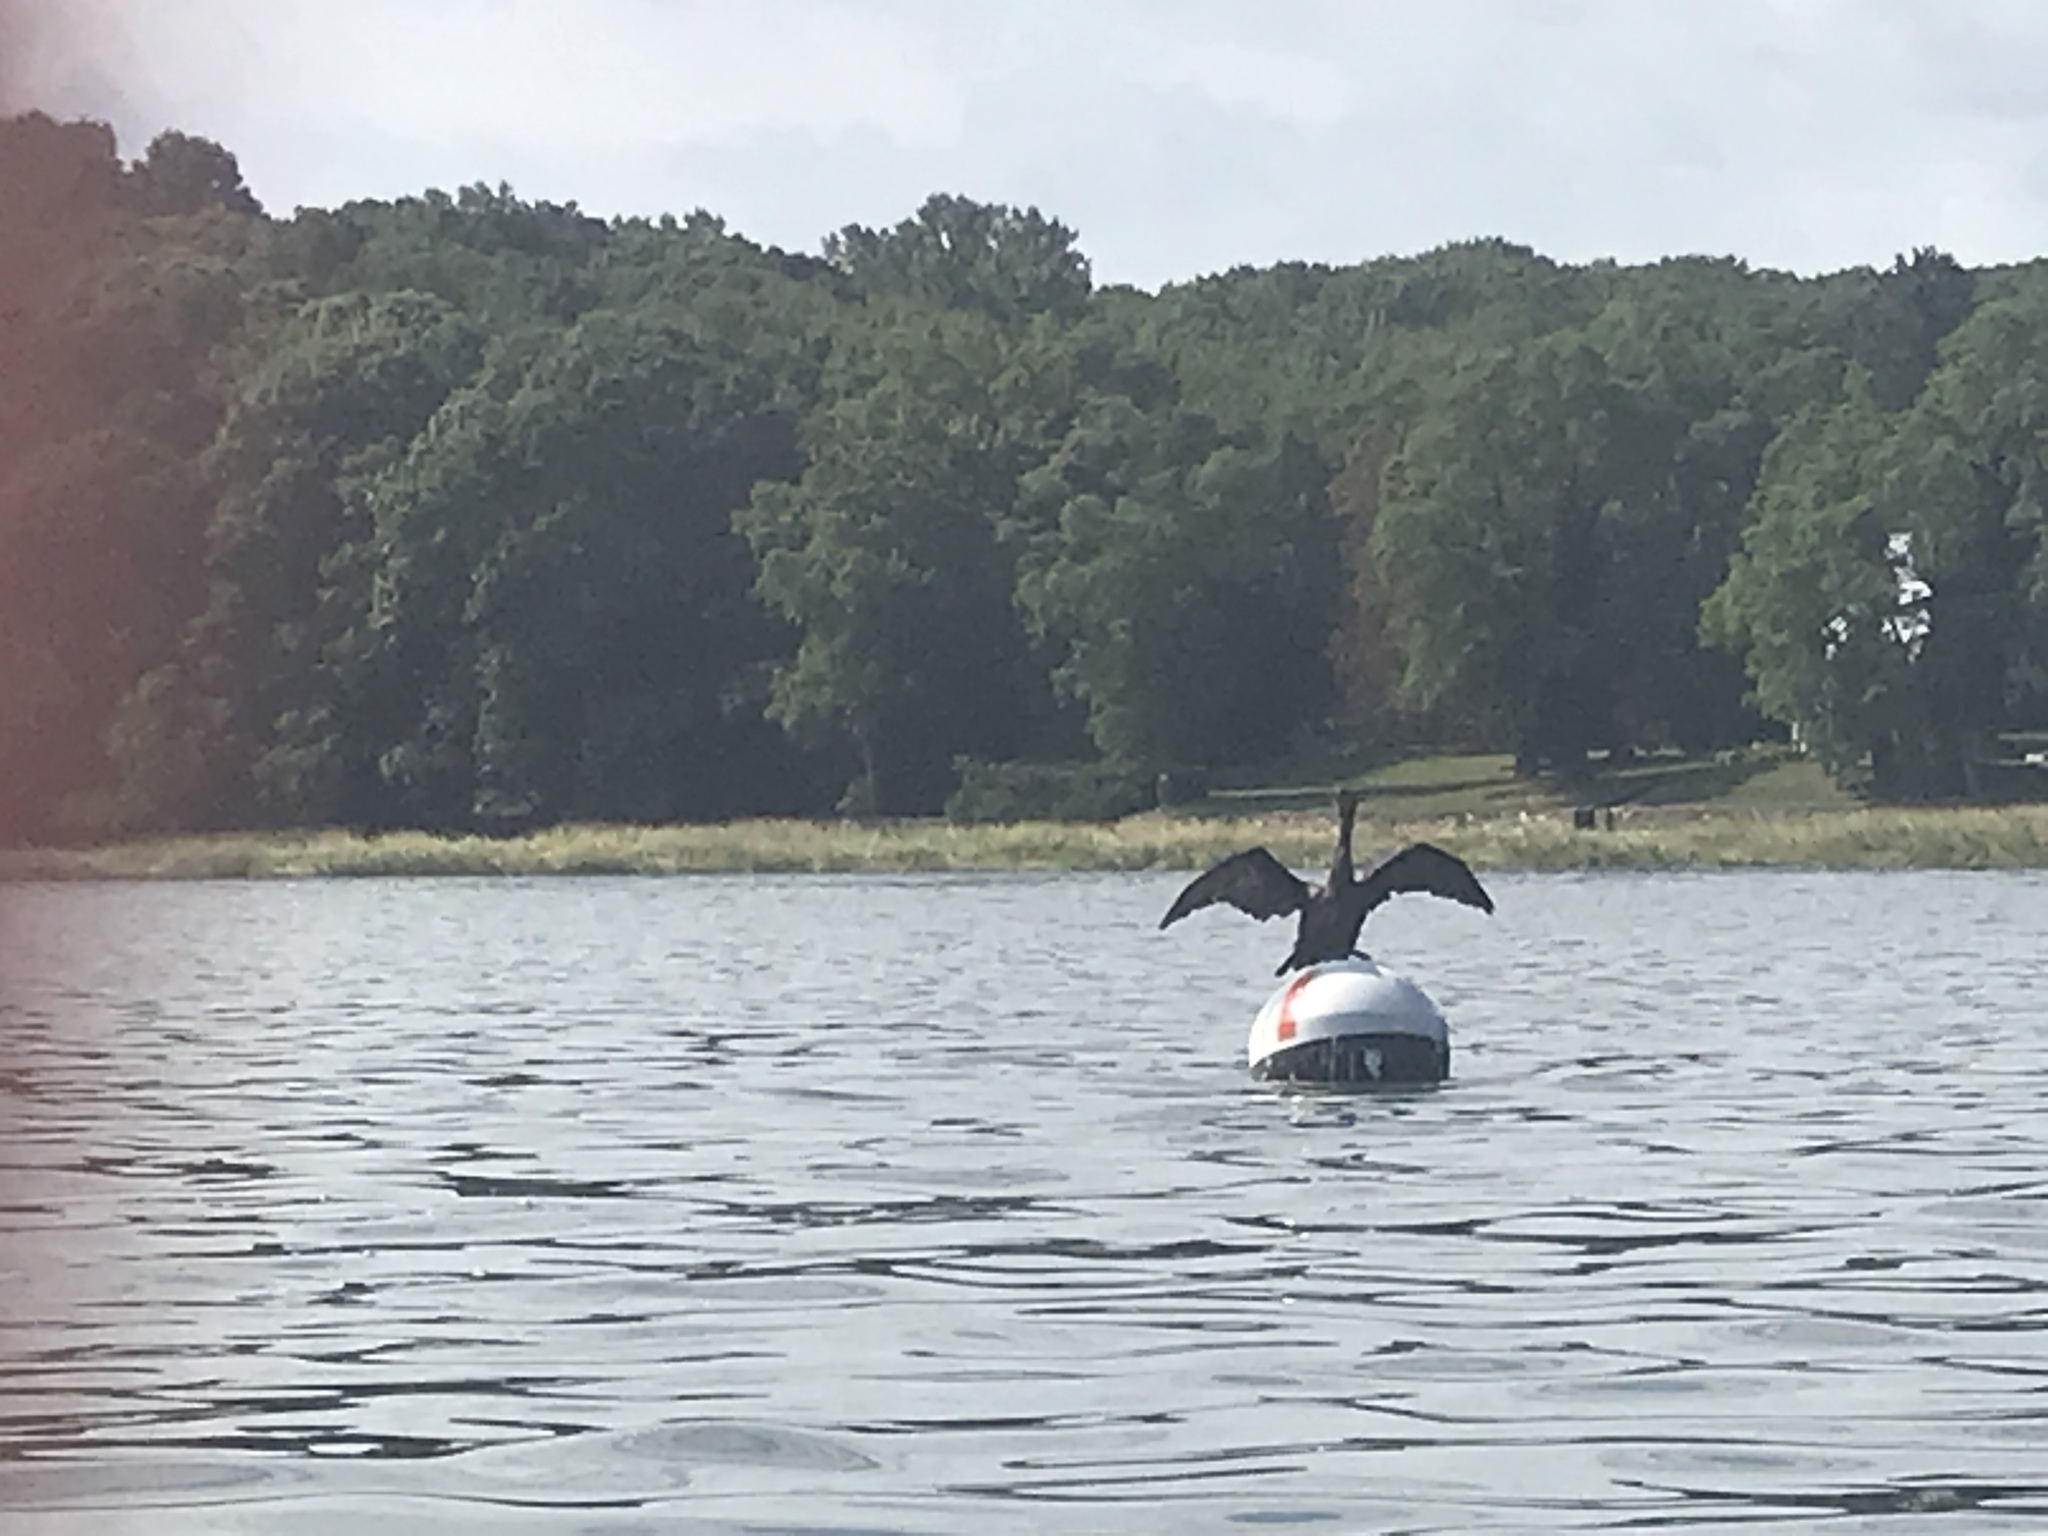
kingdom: Animalia
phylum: Chordata
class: Aves
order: Suliformes
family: Phalacrocoracidae
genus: Phalacrocorax
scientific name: Phalacrocorax auritus
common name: Double-crested cormorant
